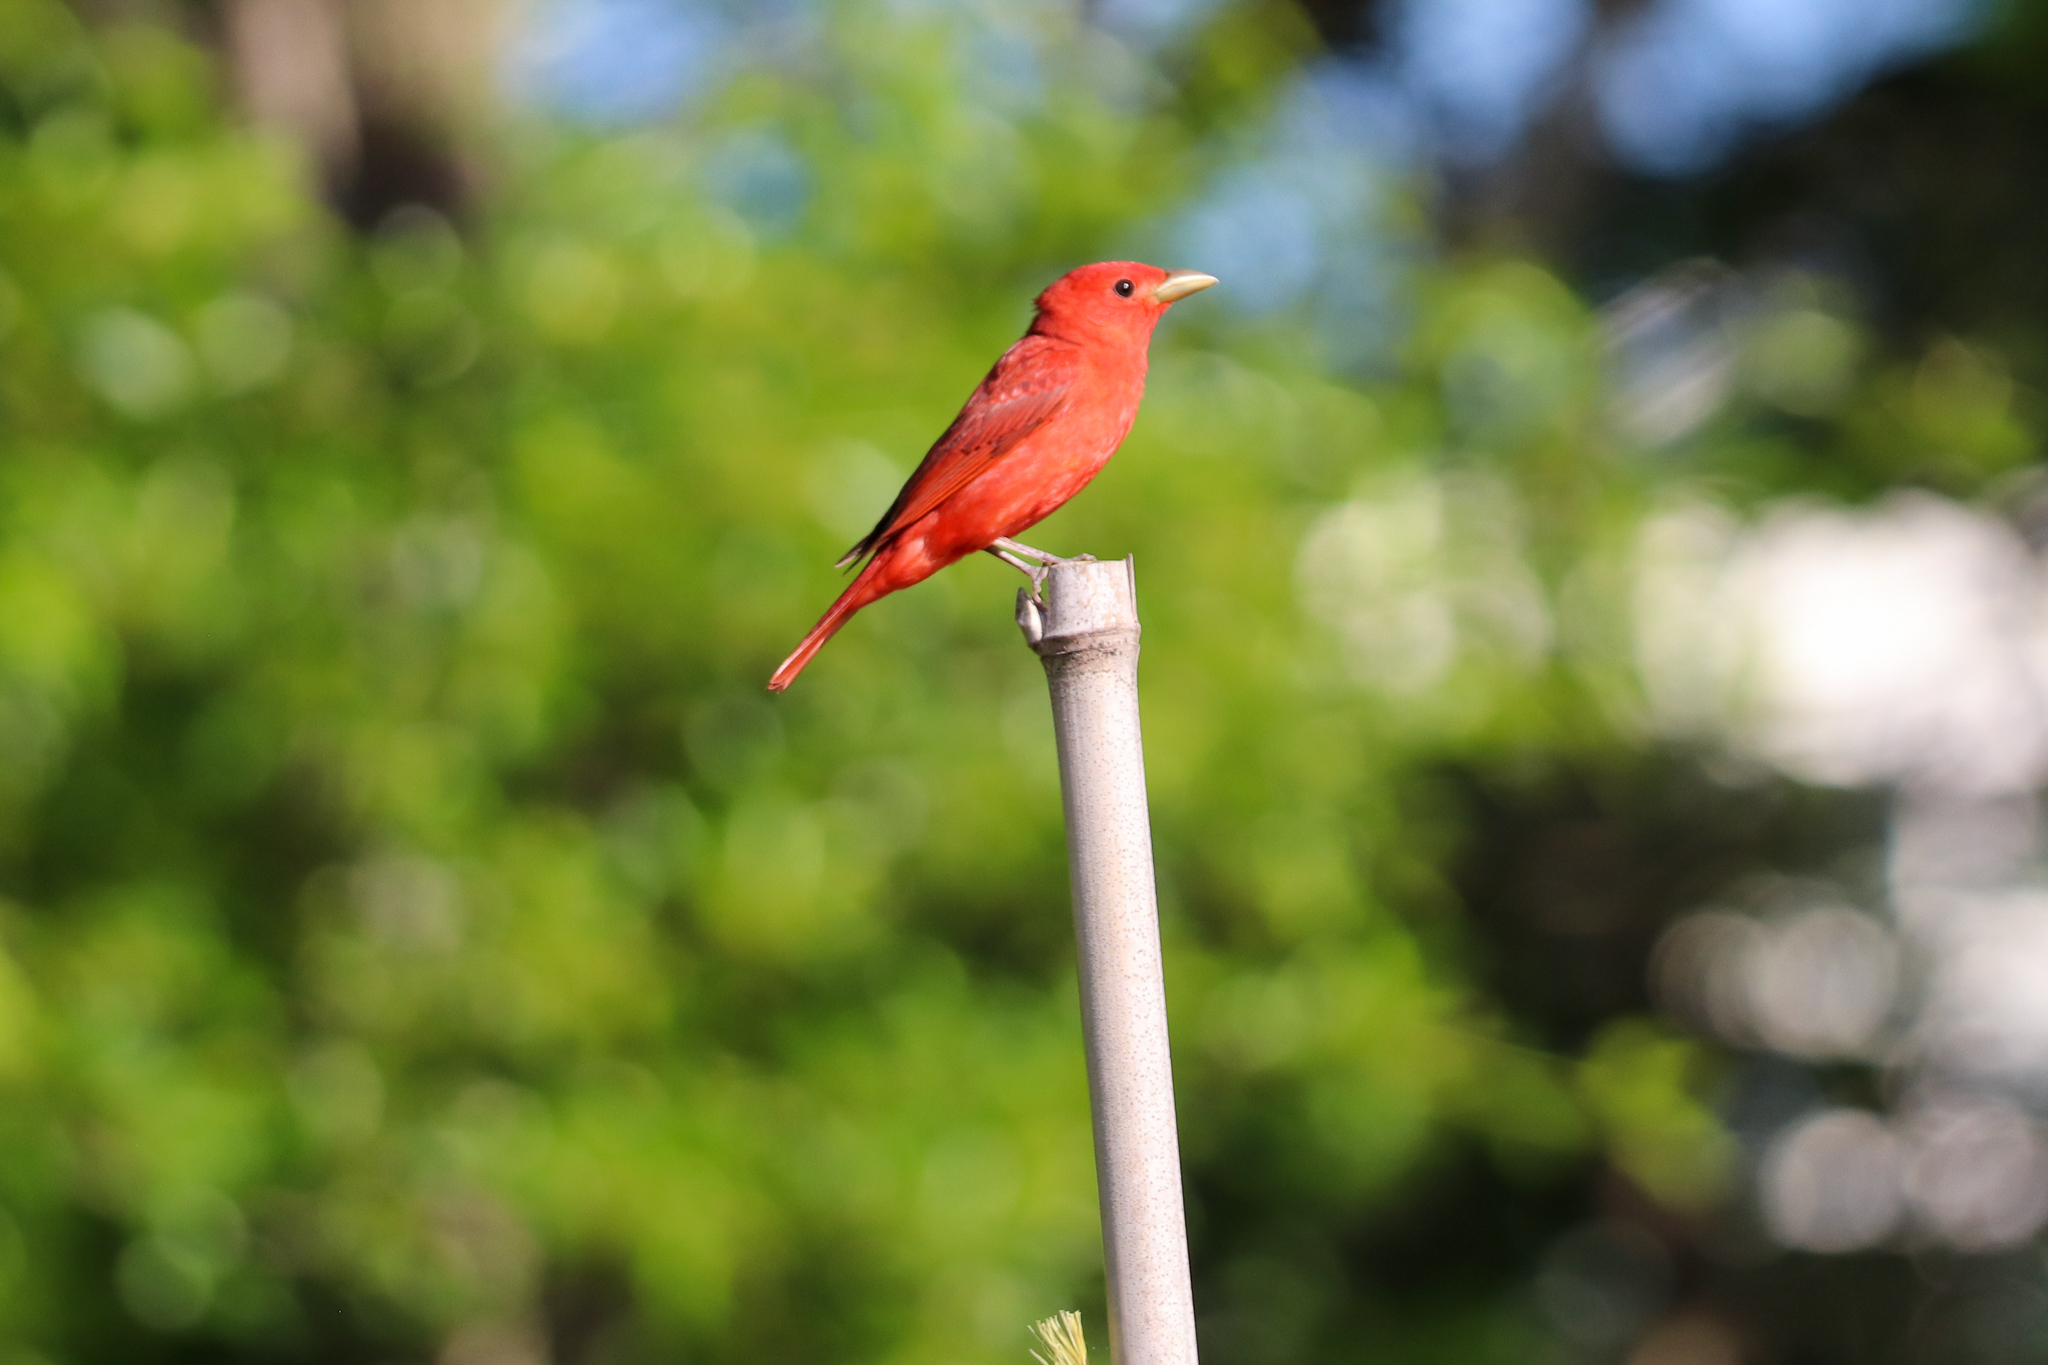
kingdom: Animalia
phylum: Chordata
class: Aves
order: Passeriformes
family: Cardinalidae
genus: Piranga
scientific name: Piranga rubra
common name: Summer tanager
